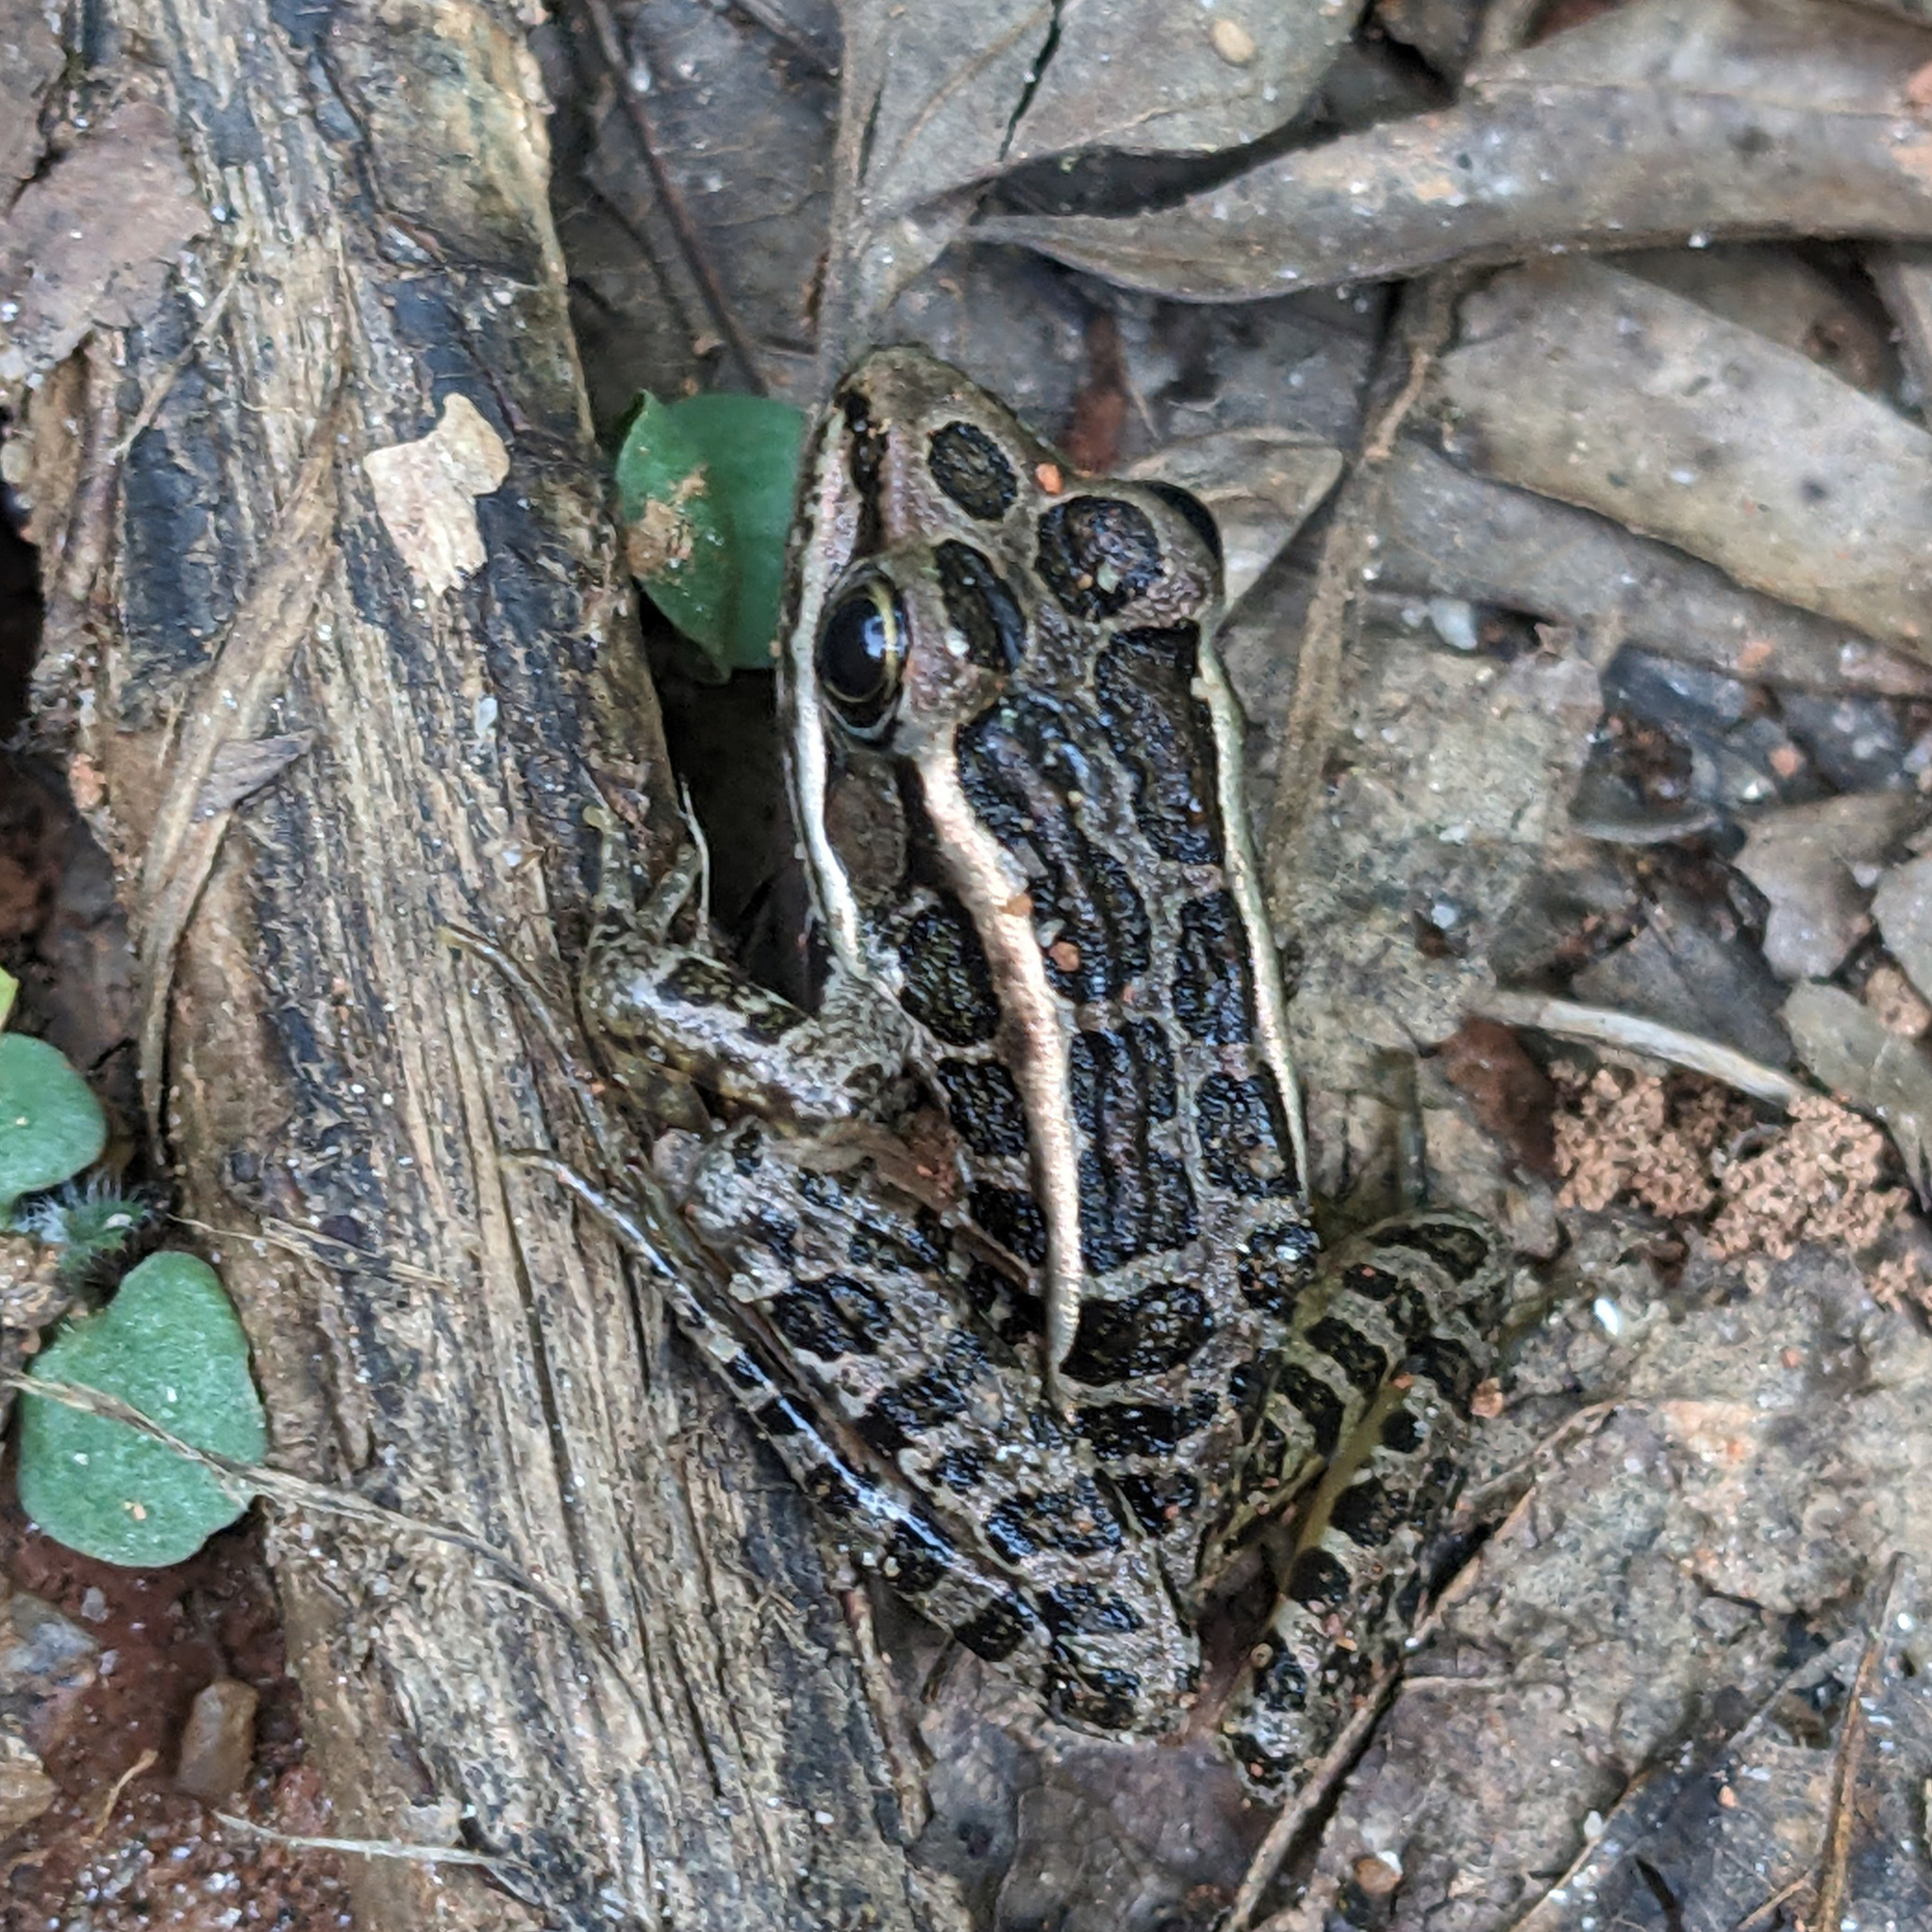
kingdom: Animalia
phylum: Chordata
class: Amphibia
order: Anura
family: Ranidae
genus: Lithobates
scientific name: Lithobates palustris
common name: Pickerel frog
